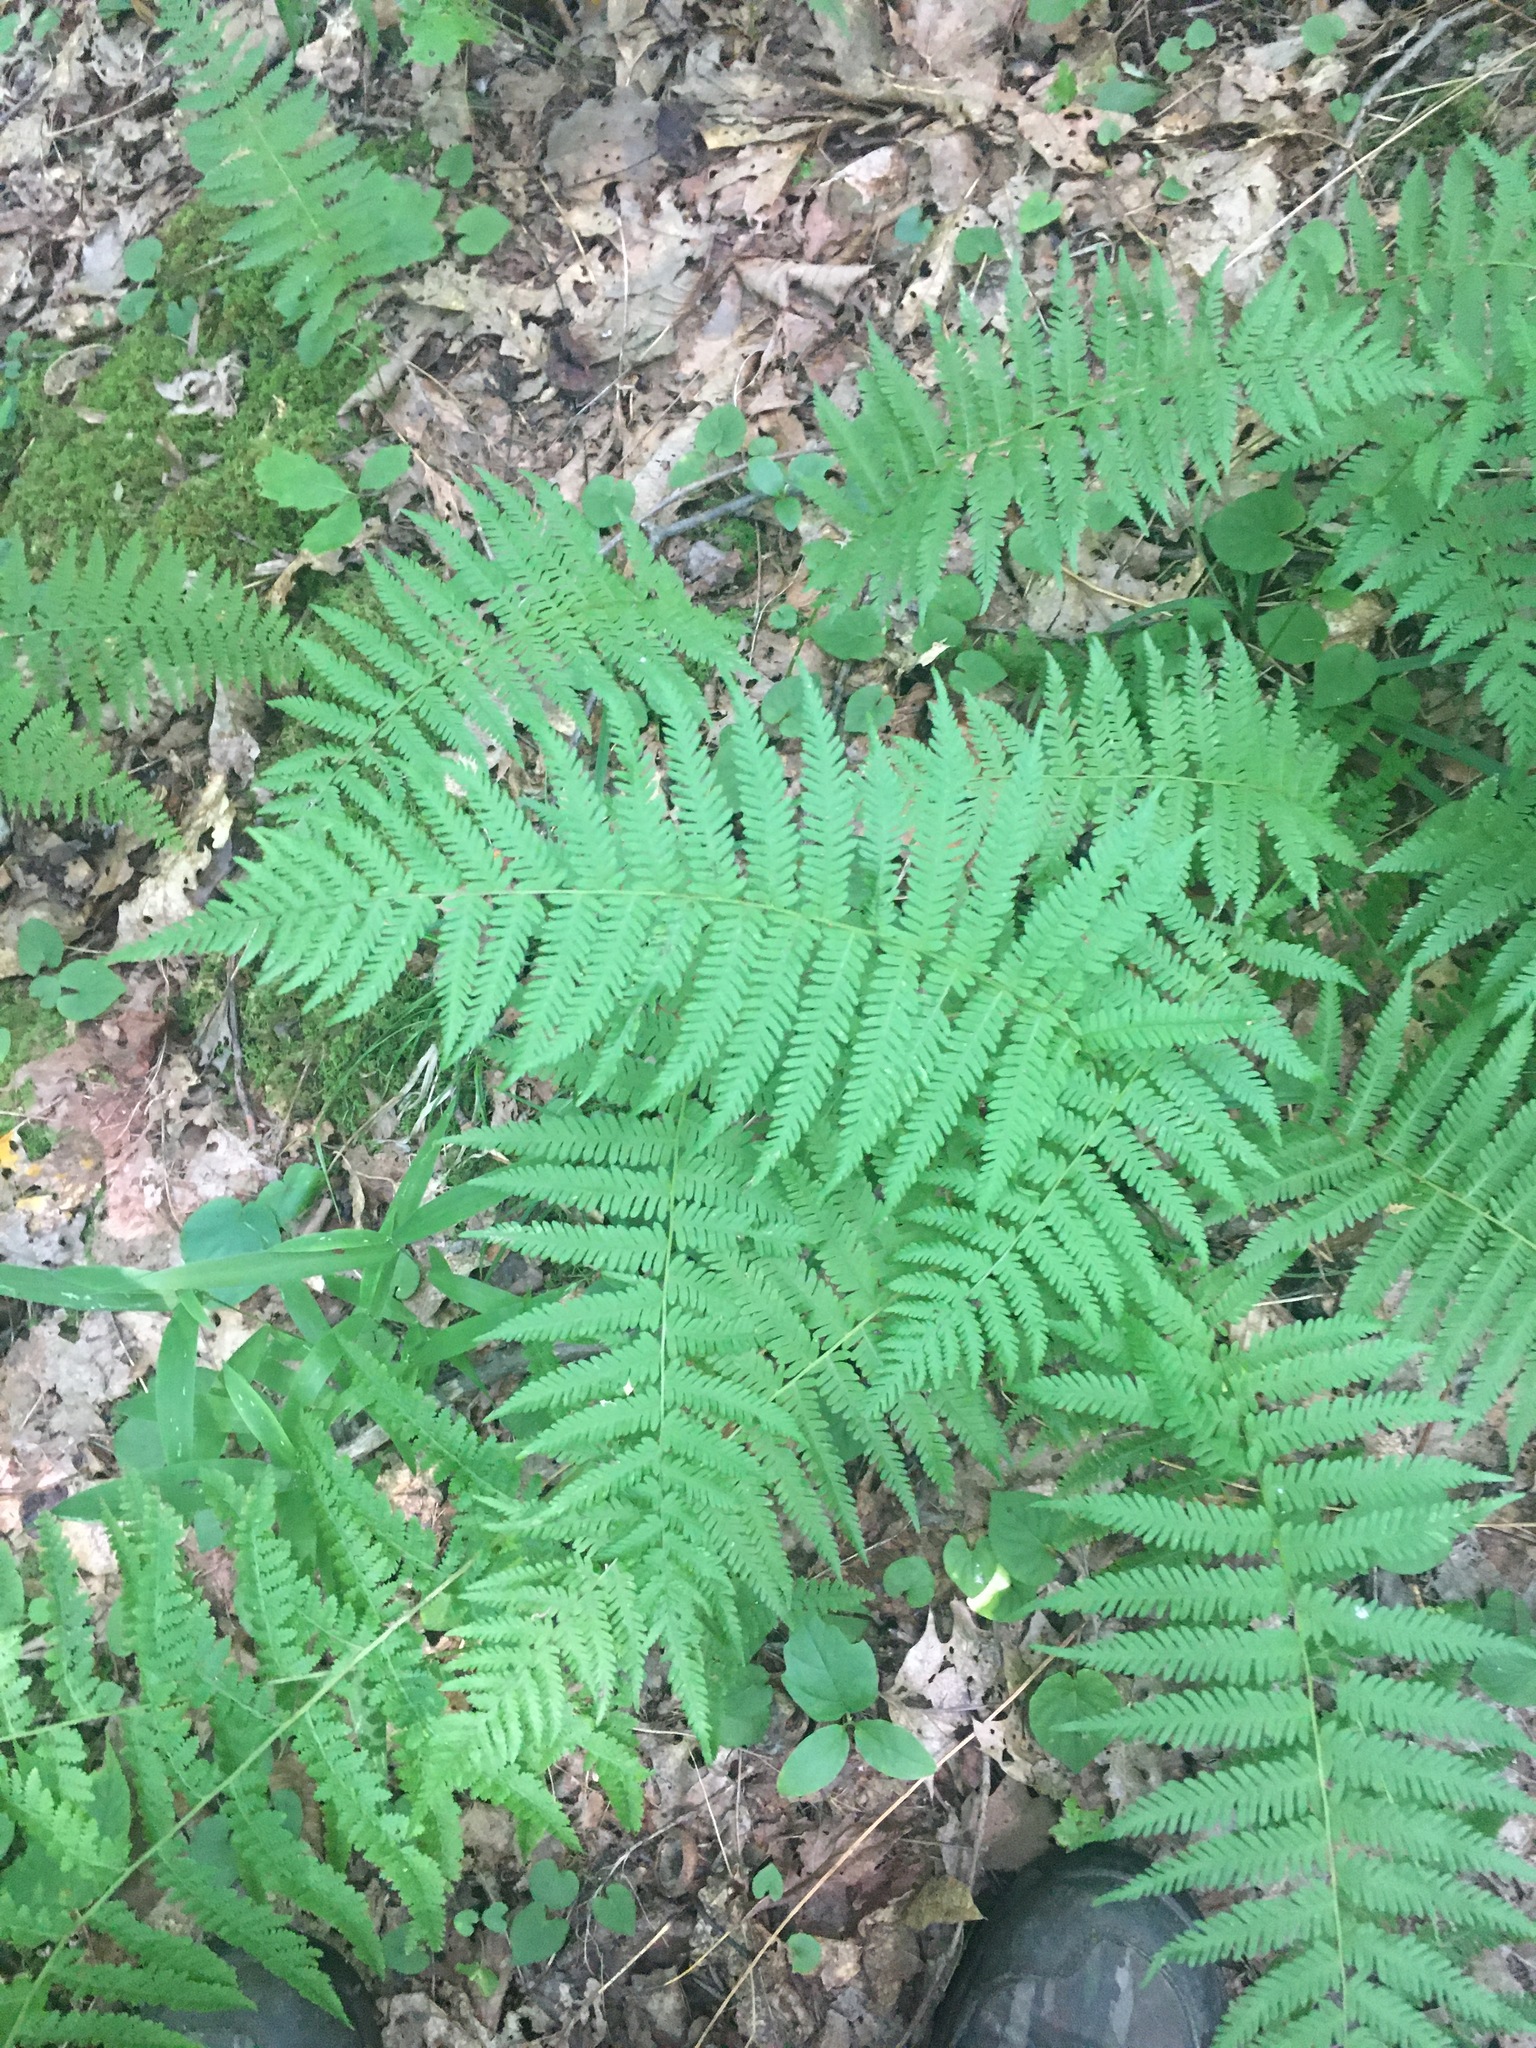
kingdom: Plantae
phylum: Tracheophyta
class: Polypodiopsida
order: Polypodiales
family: Thelypteridaceae
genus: Amauropelta
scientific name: Amauropelta noveboracensis
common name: New york fern
